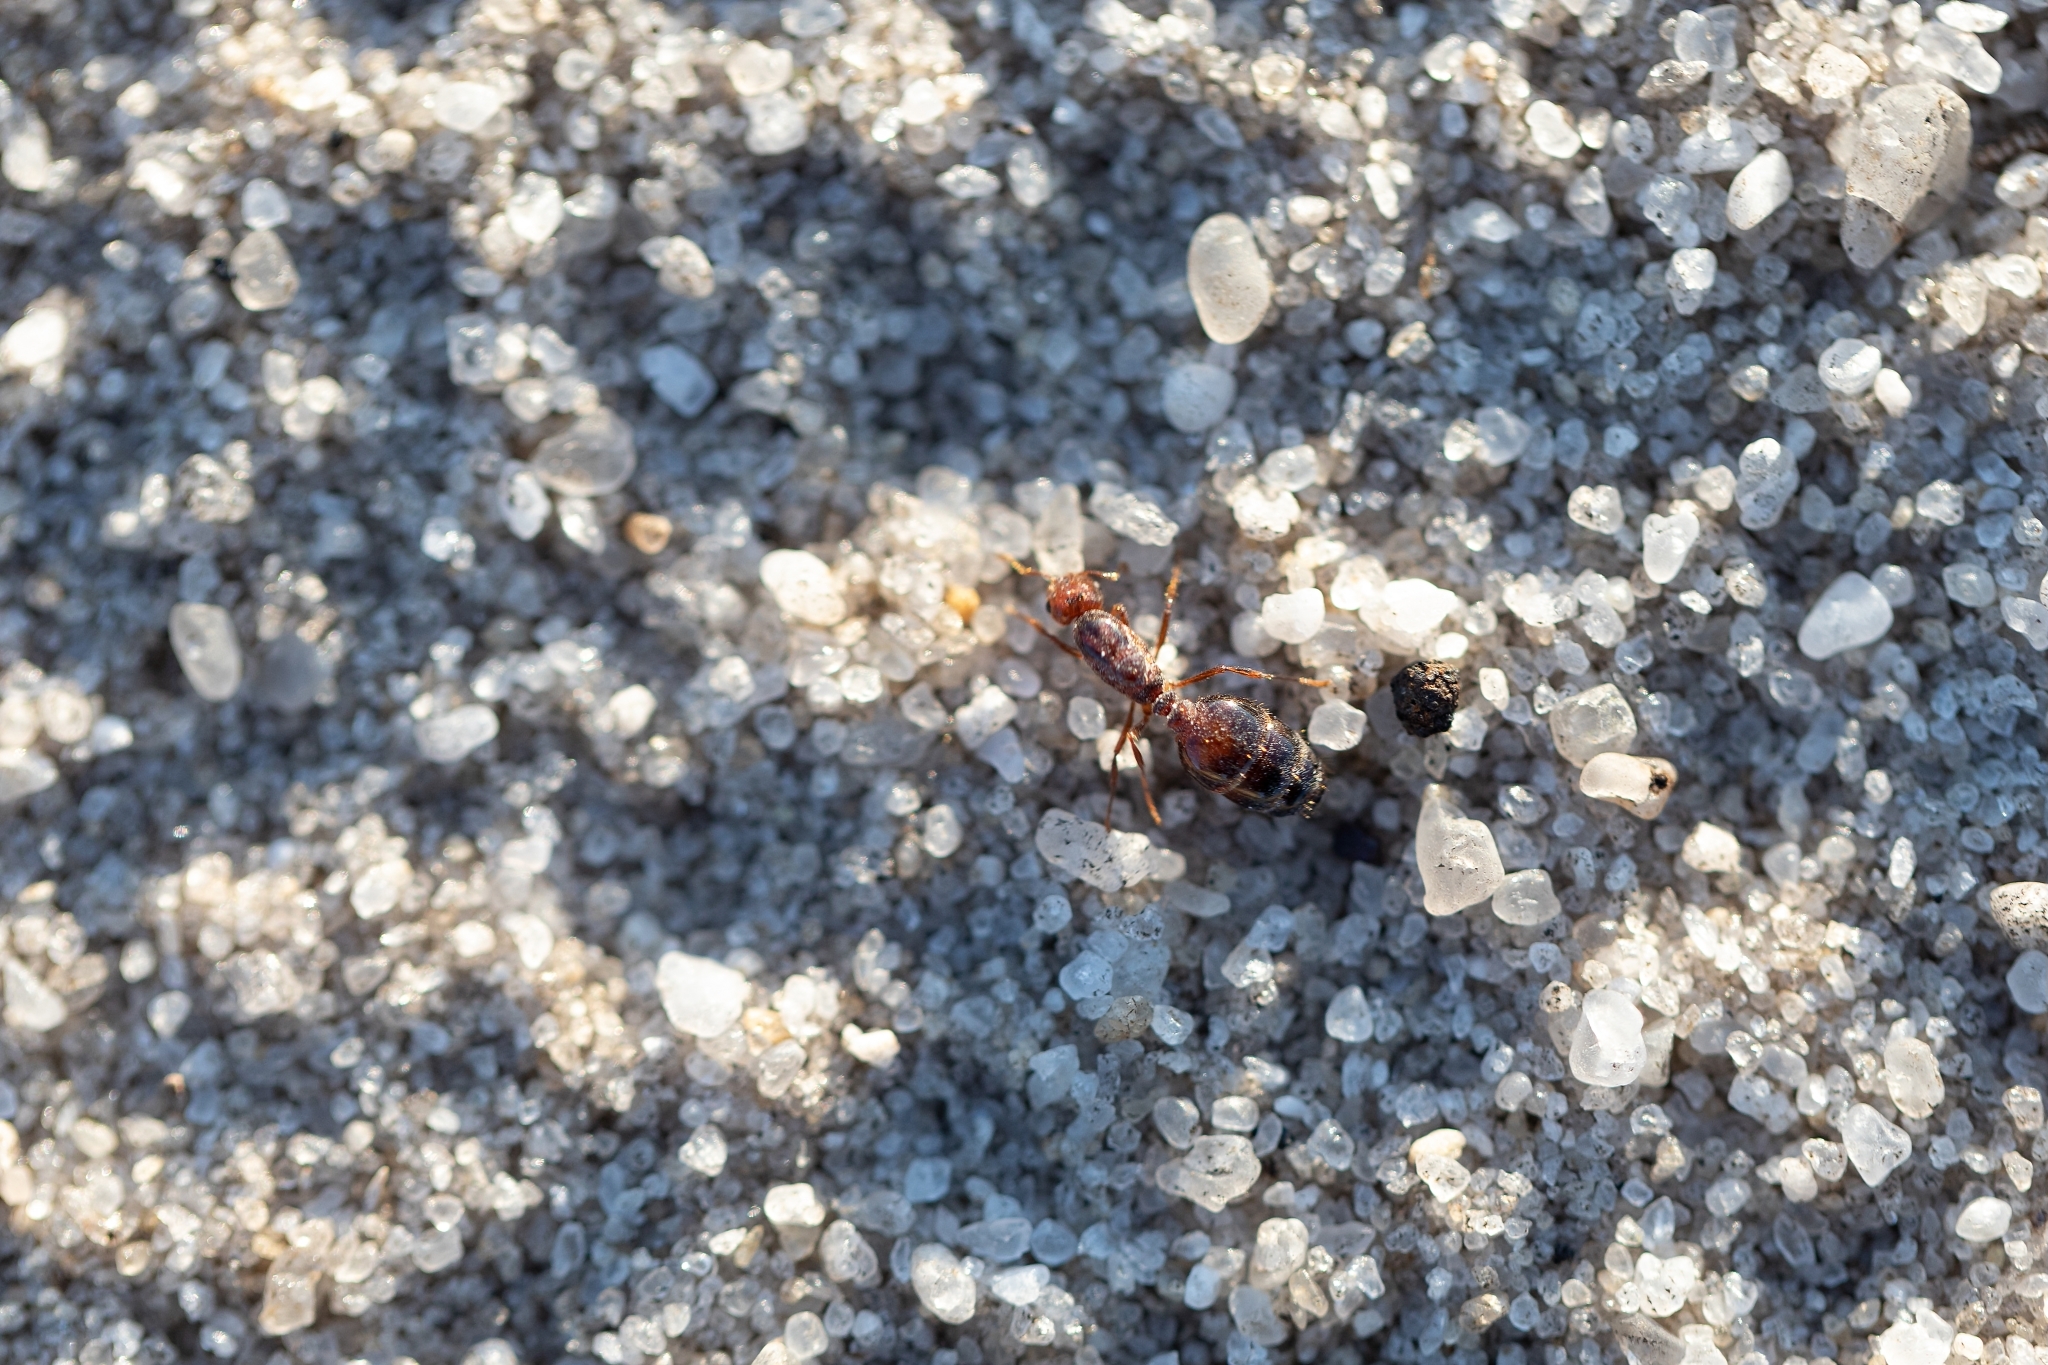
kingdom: Animalia
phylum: Arthropoda
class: Insecta
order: Hymenoptera
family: Formicidae
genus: Solenopsis
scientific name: Solenopsis invicta
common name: Red imported fire ant
